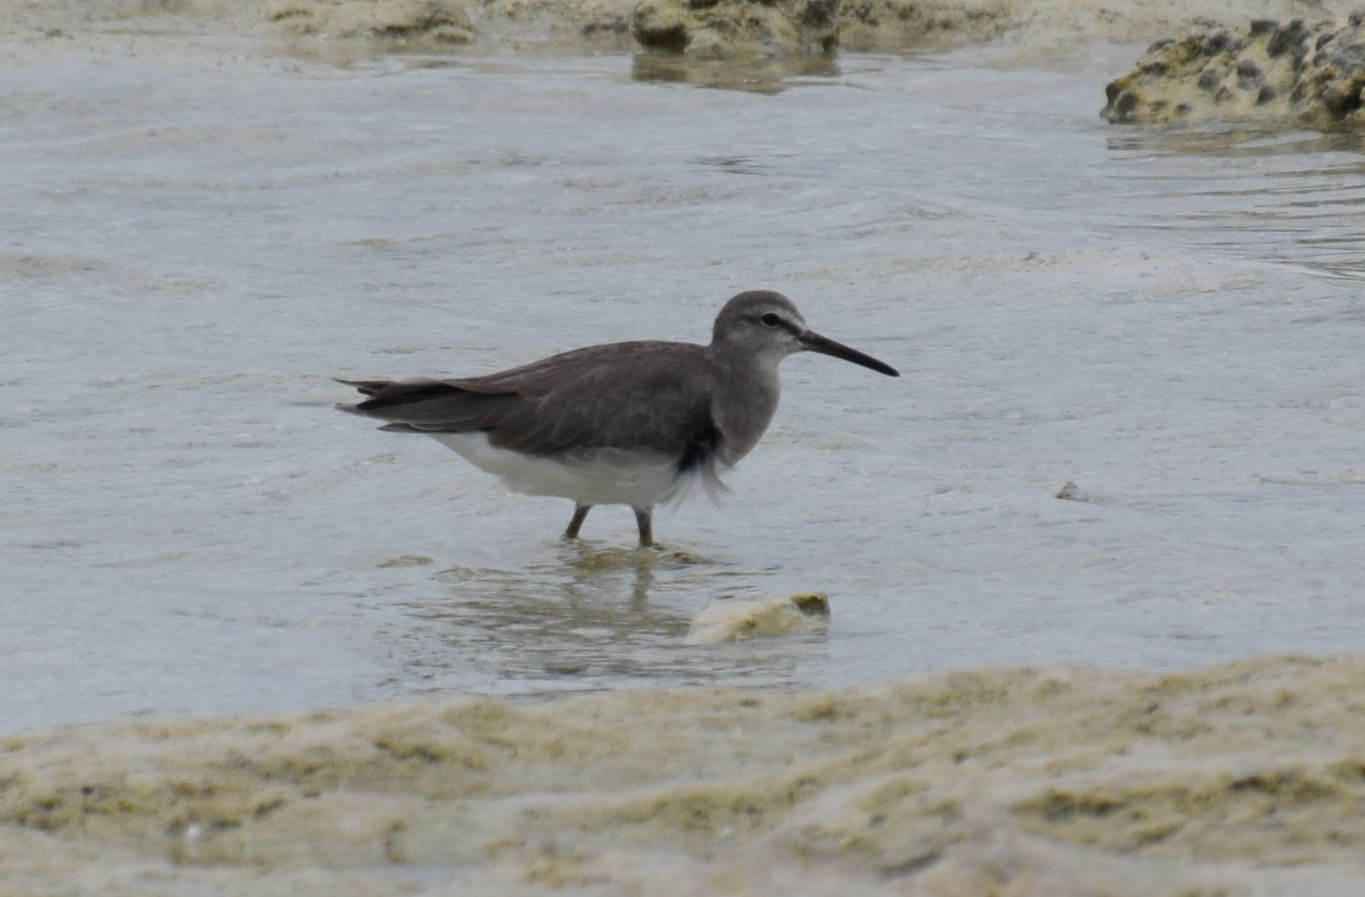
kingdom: Animalia
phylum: Chordata
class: Aves
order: Charadriiformes
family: Scolopacidae
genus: Tringa
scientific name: Tringa brevipes
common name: Grey-tailed tattler
